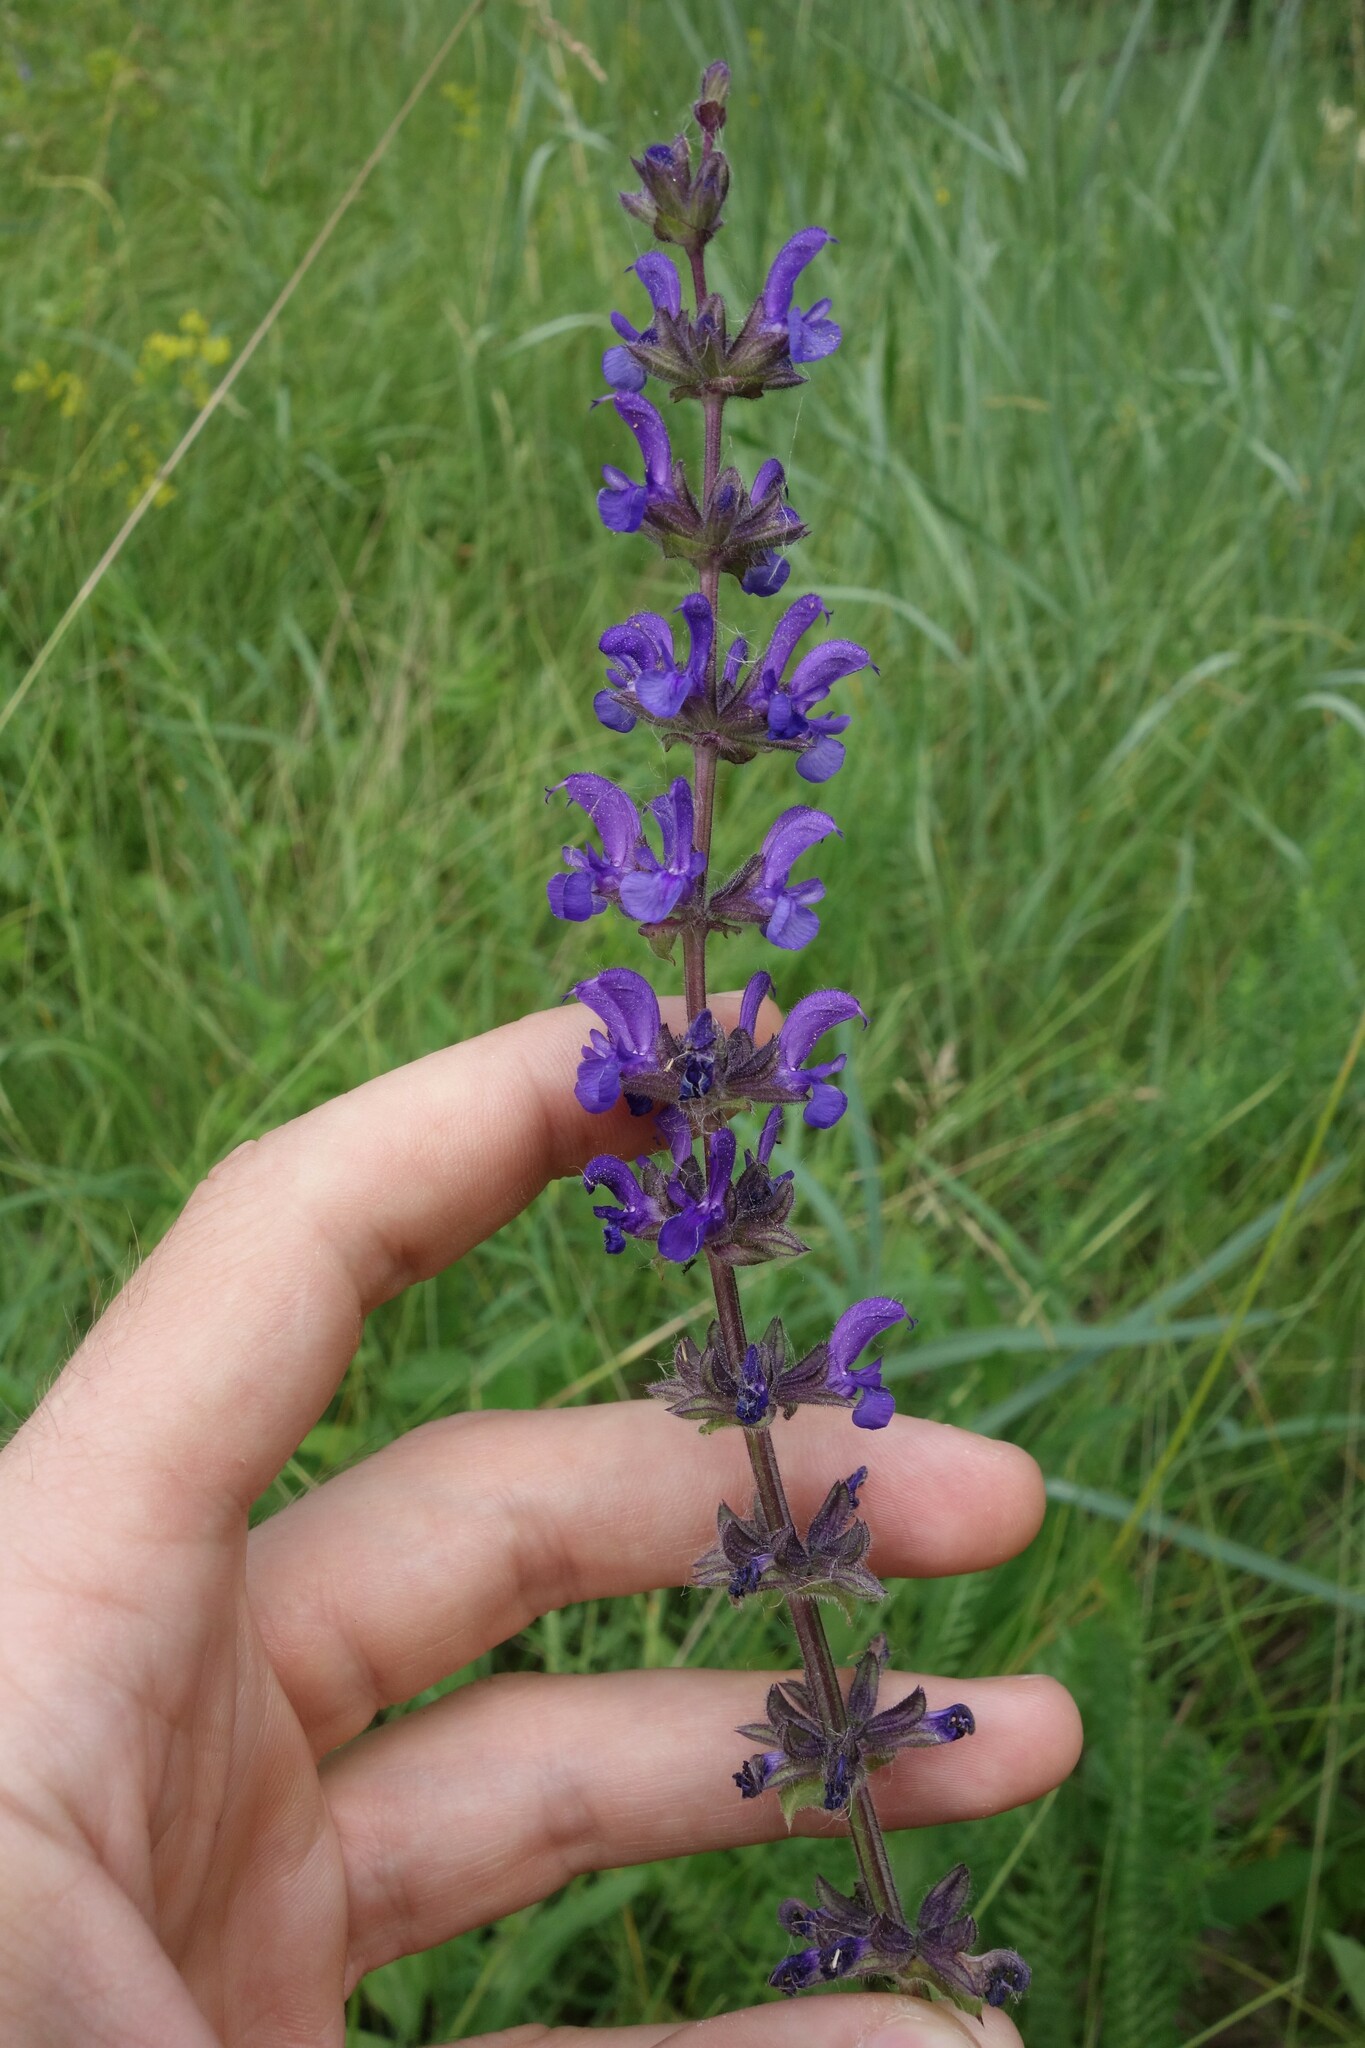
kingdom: Plantae
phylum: Tracheophyta
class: Magnoliopsida
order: Lamiales
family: Lamiaceae
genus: Salvia
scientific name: Salvia dumetorum
